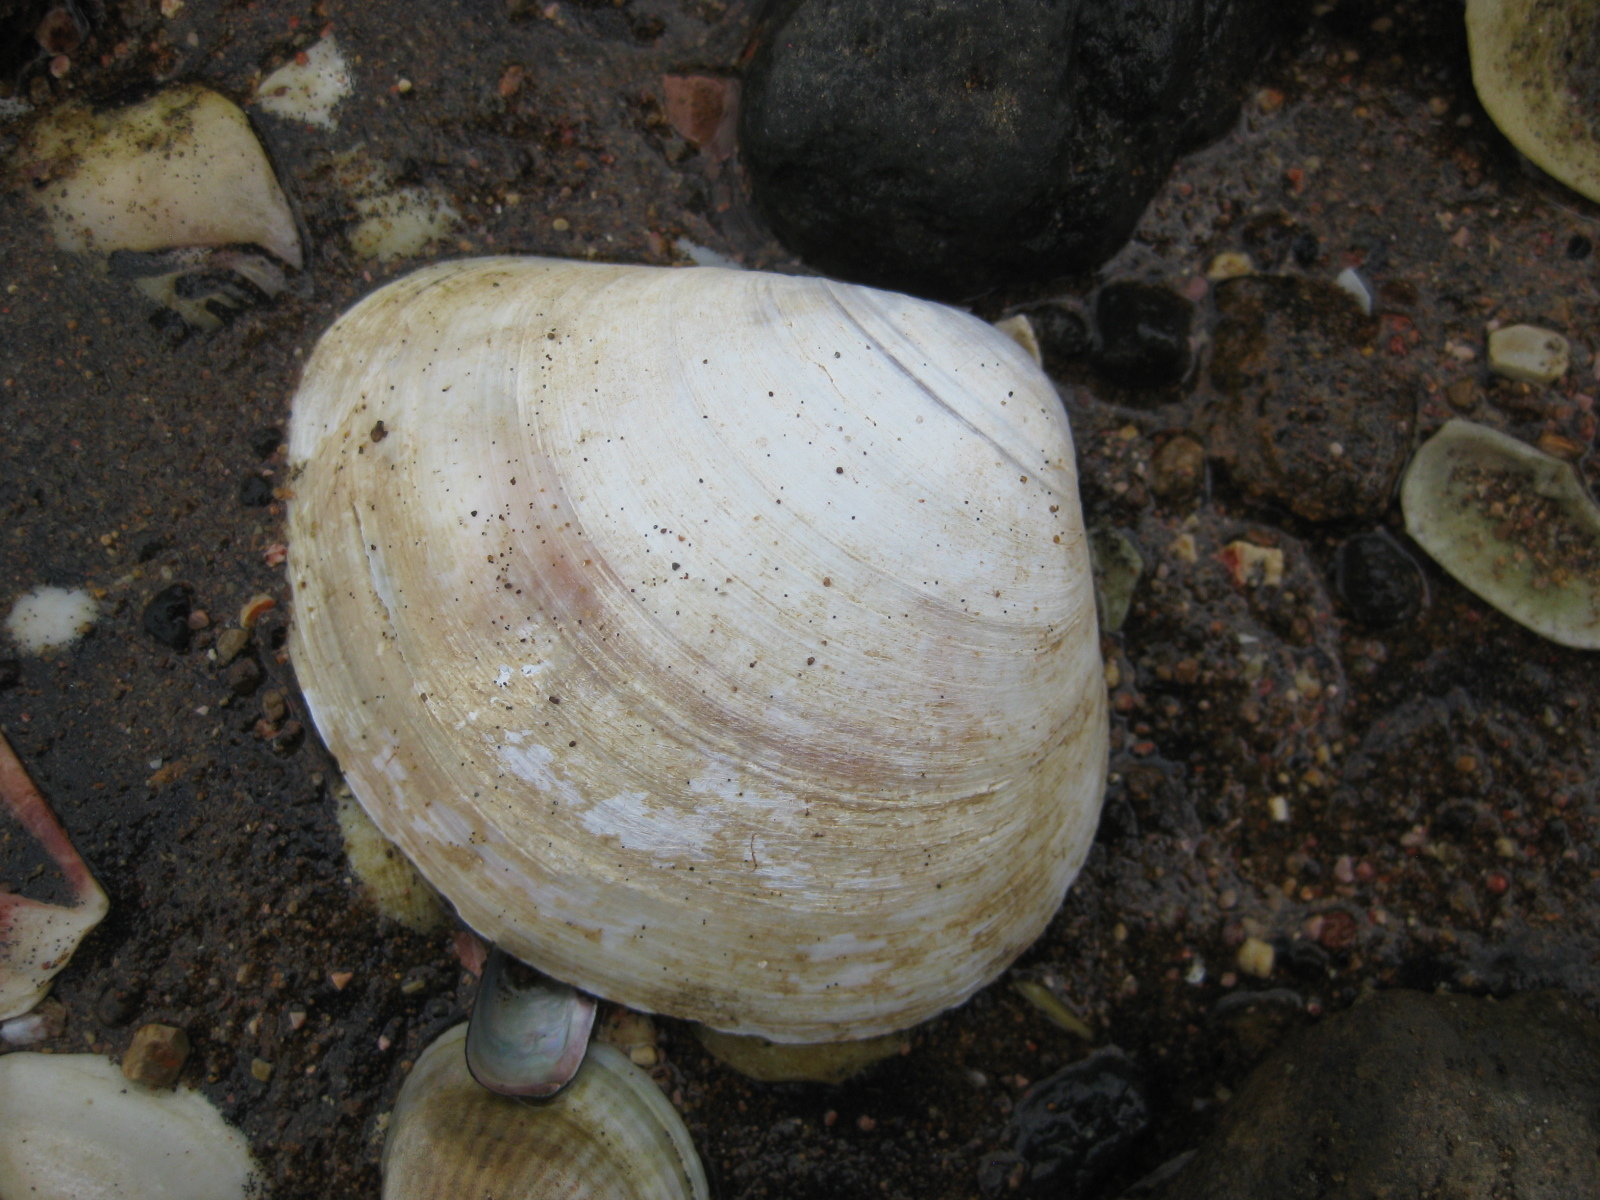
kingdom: Animalia
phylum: Mollusca
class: Bivalvia
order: Venerida
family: Mactridae
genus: Cyclomactra
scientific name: Cyclomactra ovata
